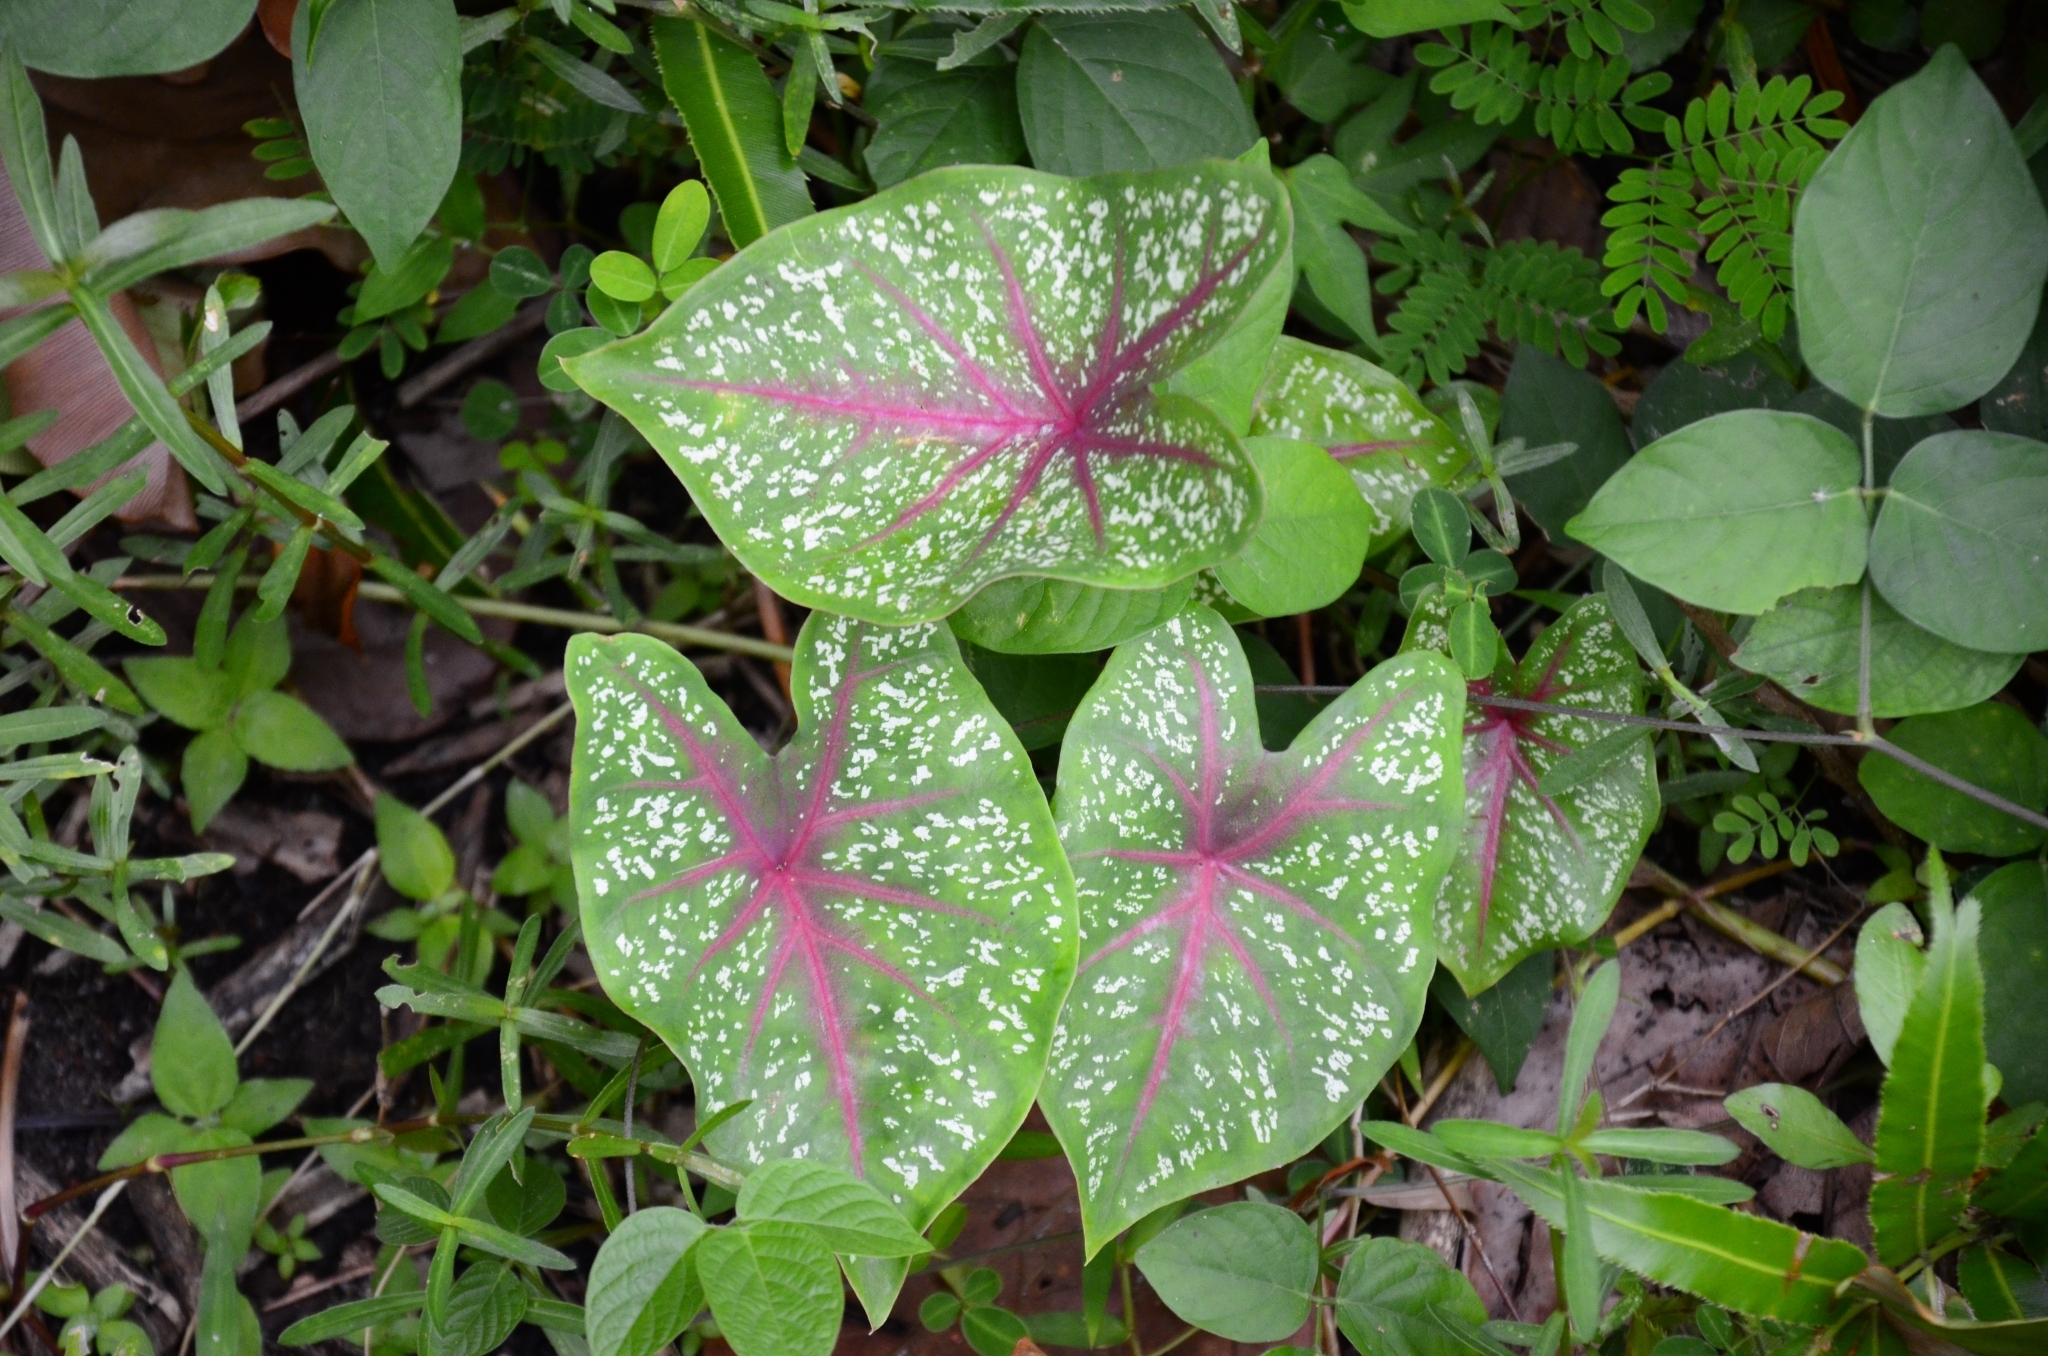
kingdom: Plantae
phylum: Tracheophyta
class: Liliopsida
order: Alismatales
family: Araceae
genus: Caladium
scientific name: Caladium bicolor
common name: Artist's pallet
